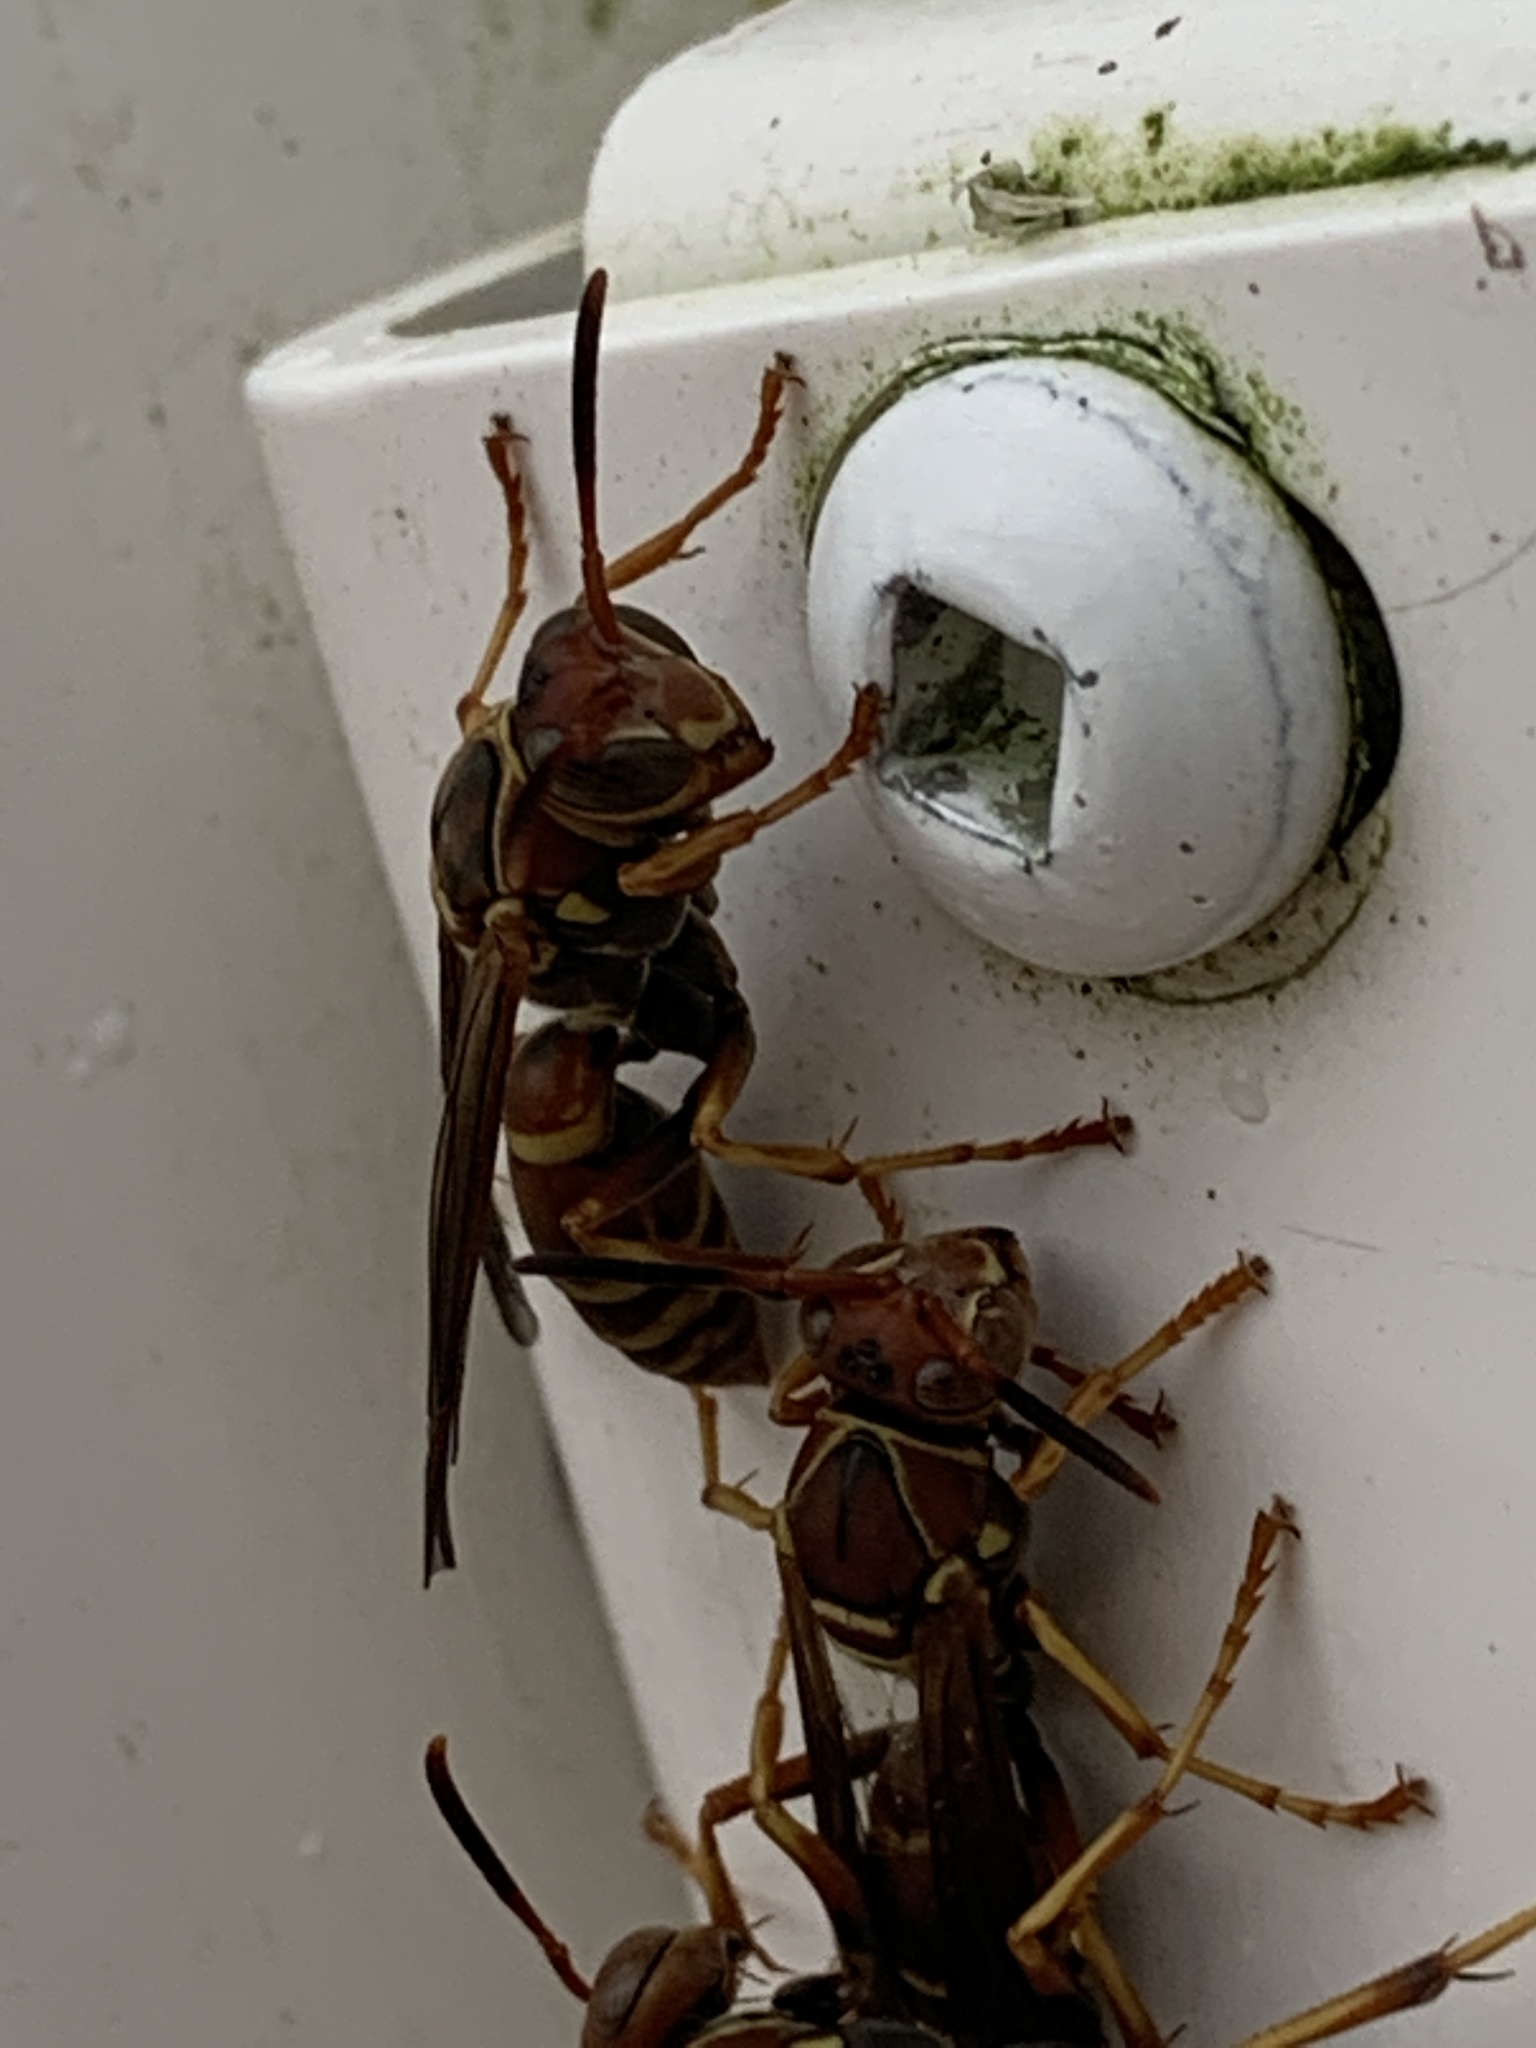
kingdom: Animalia
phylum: Arthropoda
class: Insecta
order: Hymenoptera
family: Eumenidae
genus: Polistes
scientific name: Polistes dorsalis
